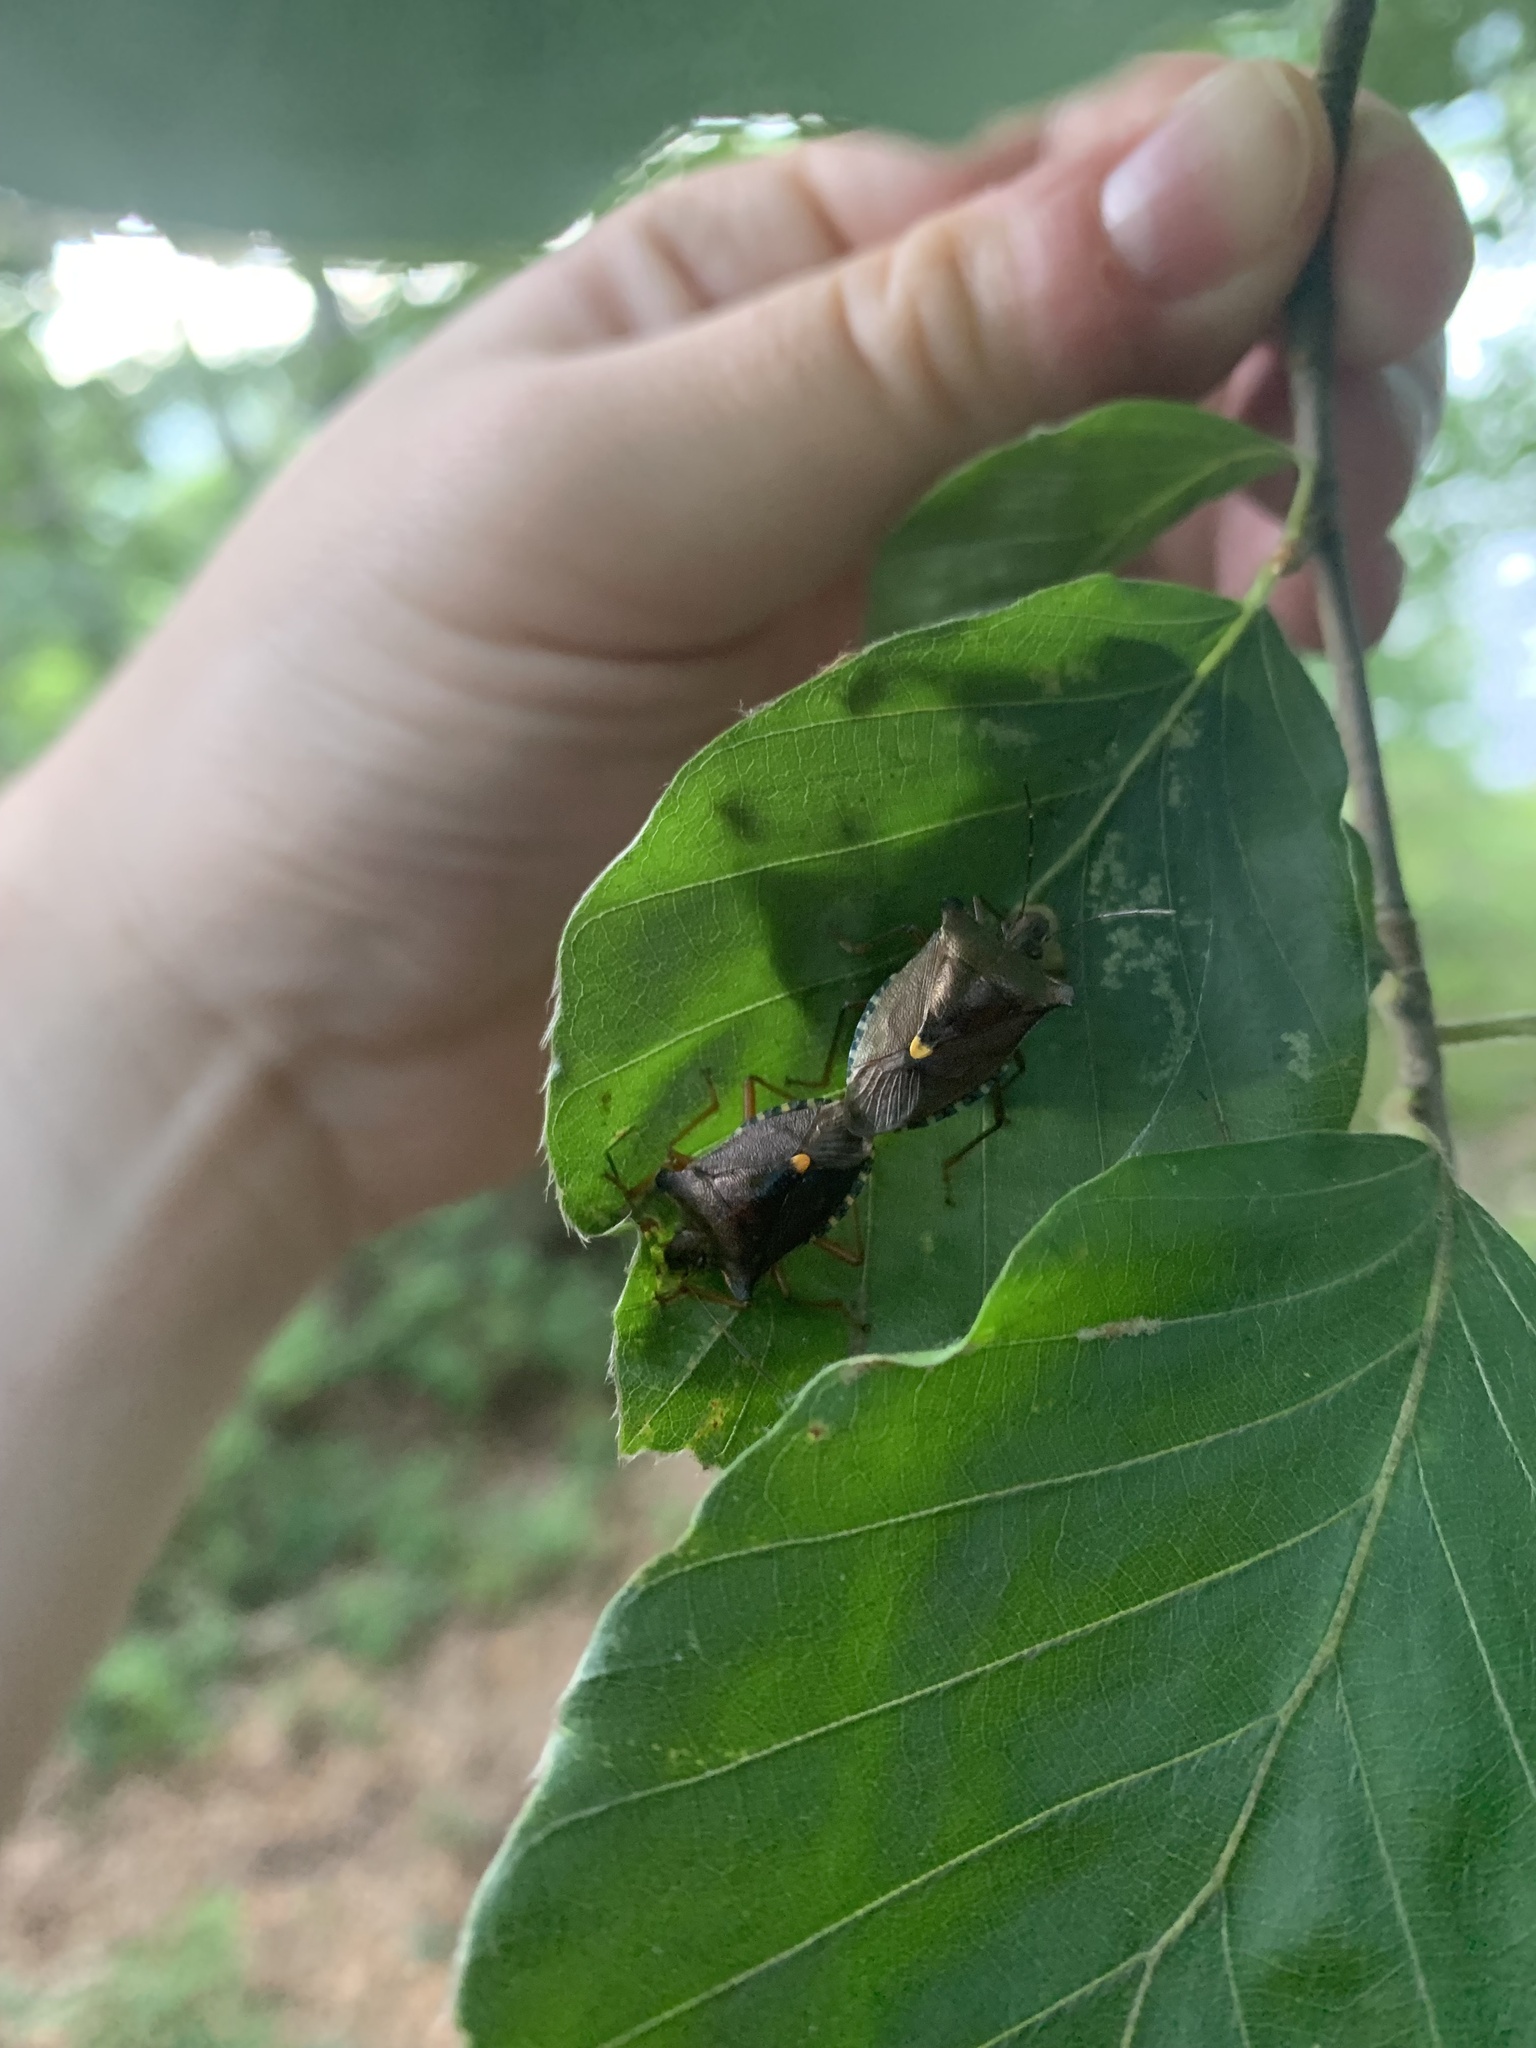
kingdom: Animalia
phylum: Arthropoda
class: Insecta
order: Hemiptera
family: Pentatomidae
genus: Pentatoma
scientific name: Pentatoma rufipes
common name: Forest bug
